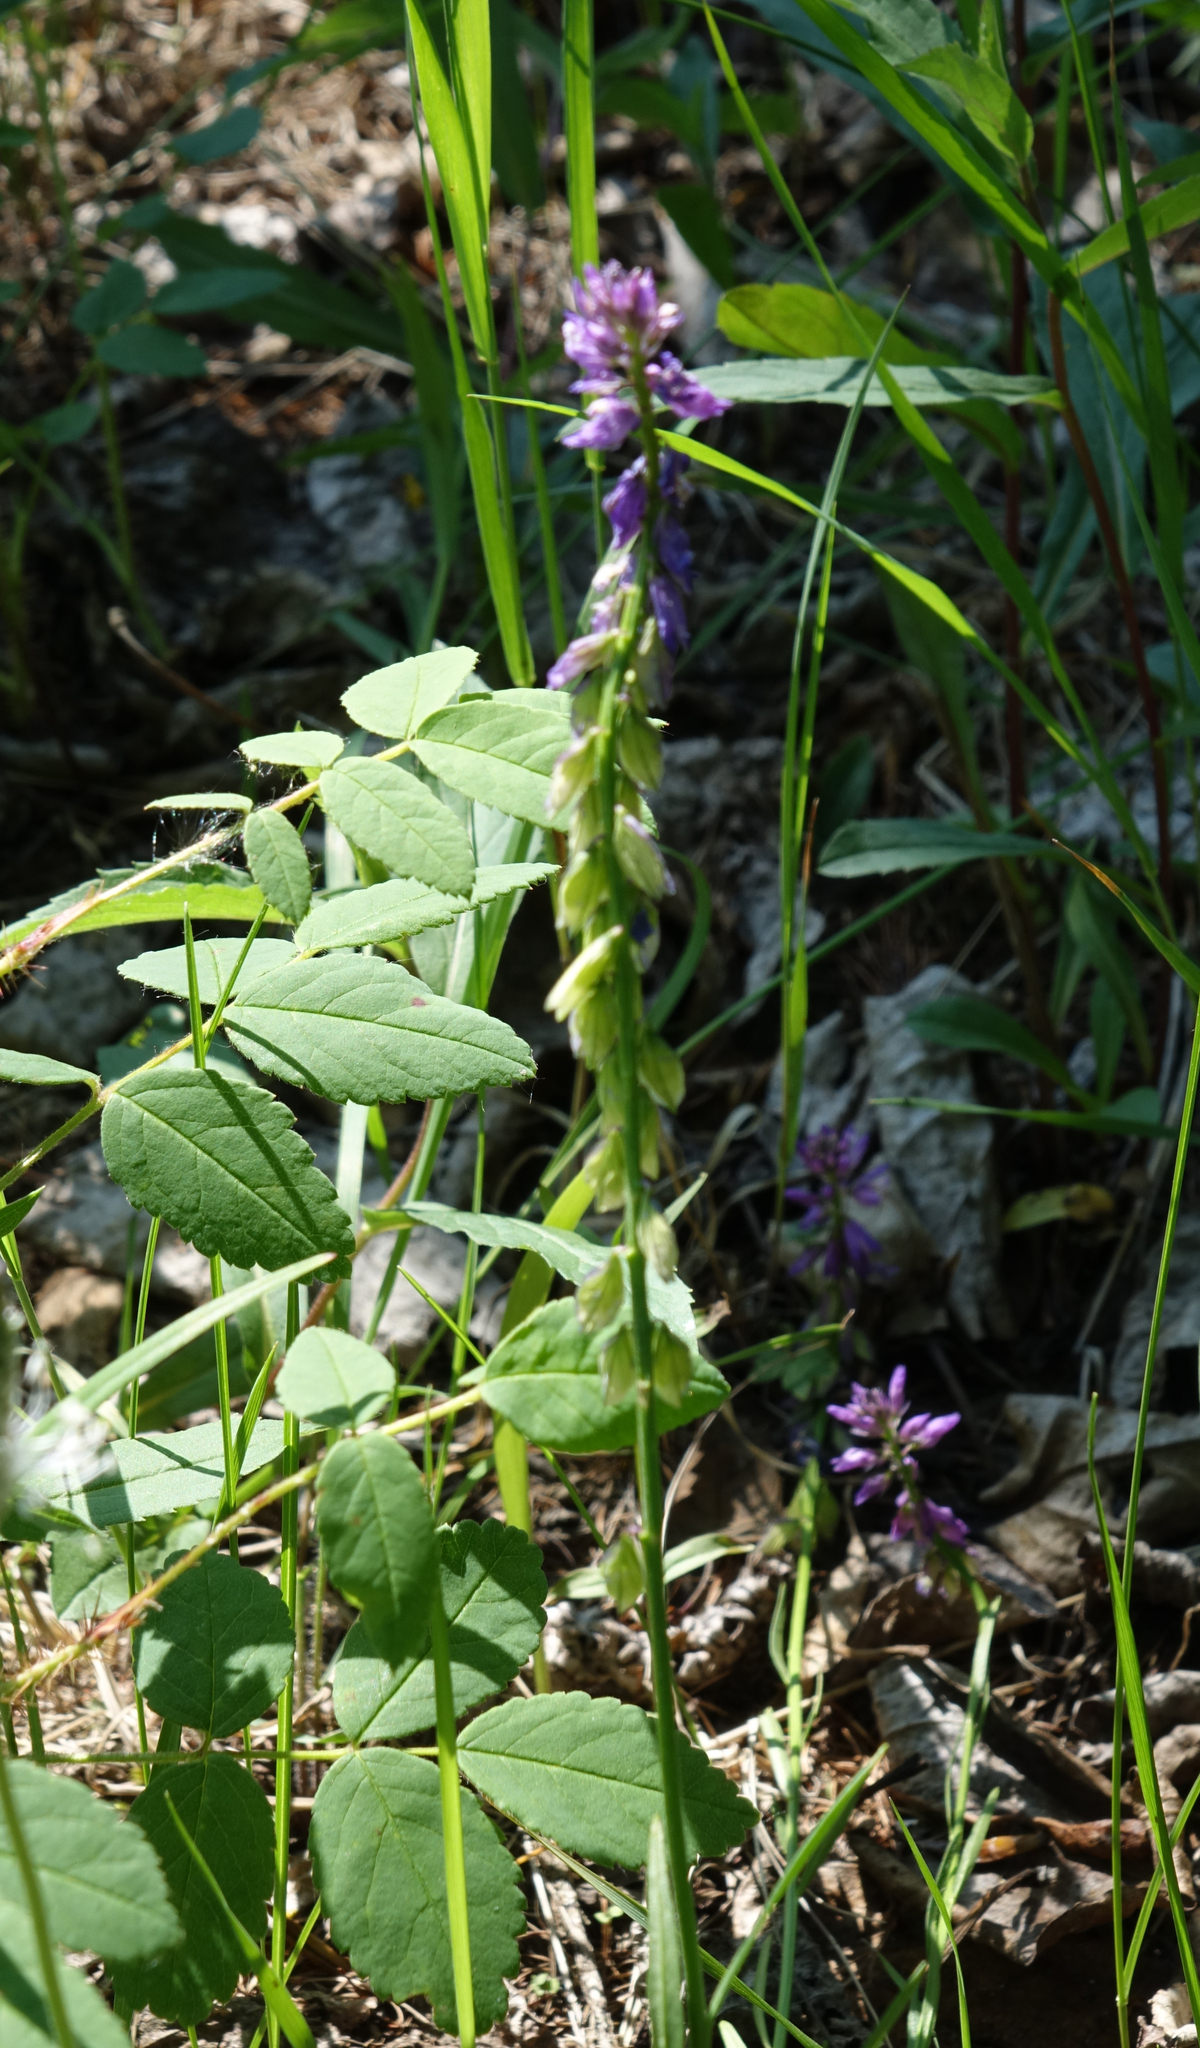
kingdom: Plantae
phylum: Tracheophyta
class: Magnoliopsida
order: Fabales
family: Polygalaceae
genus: Polygala
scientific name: Polygala comosa
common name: Tufted milkwort
